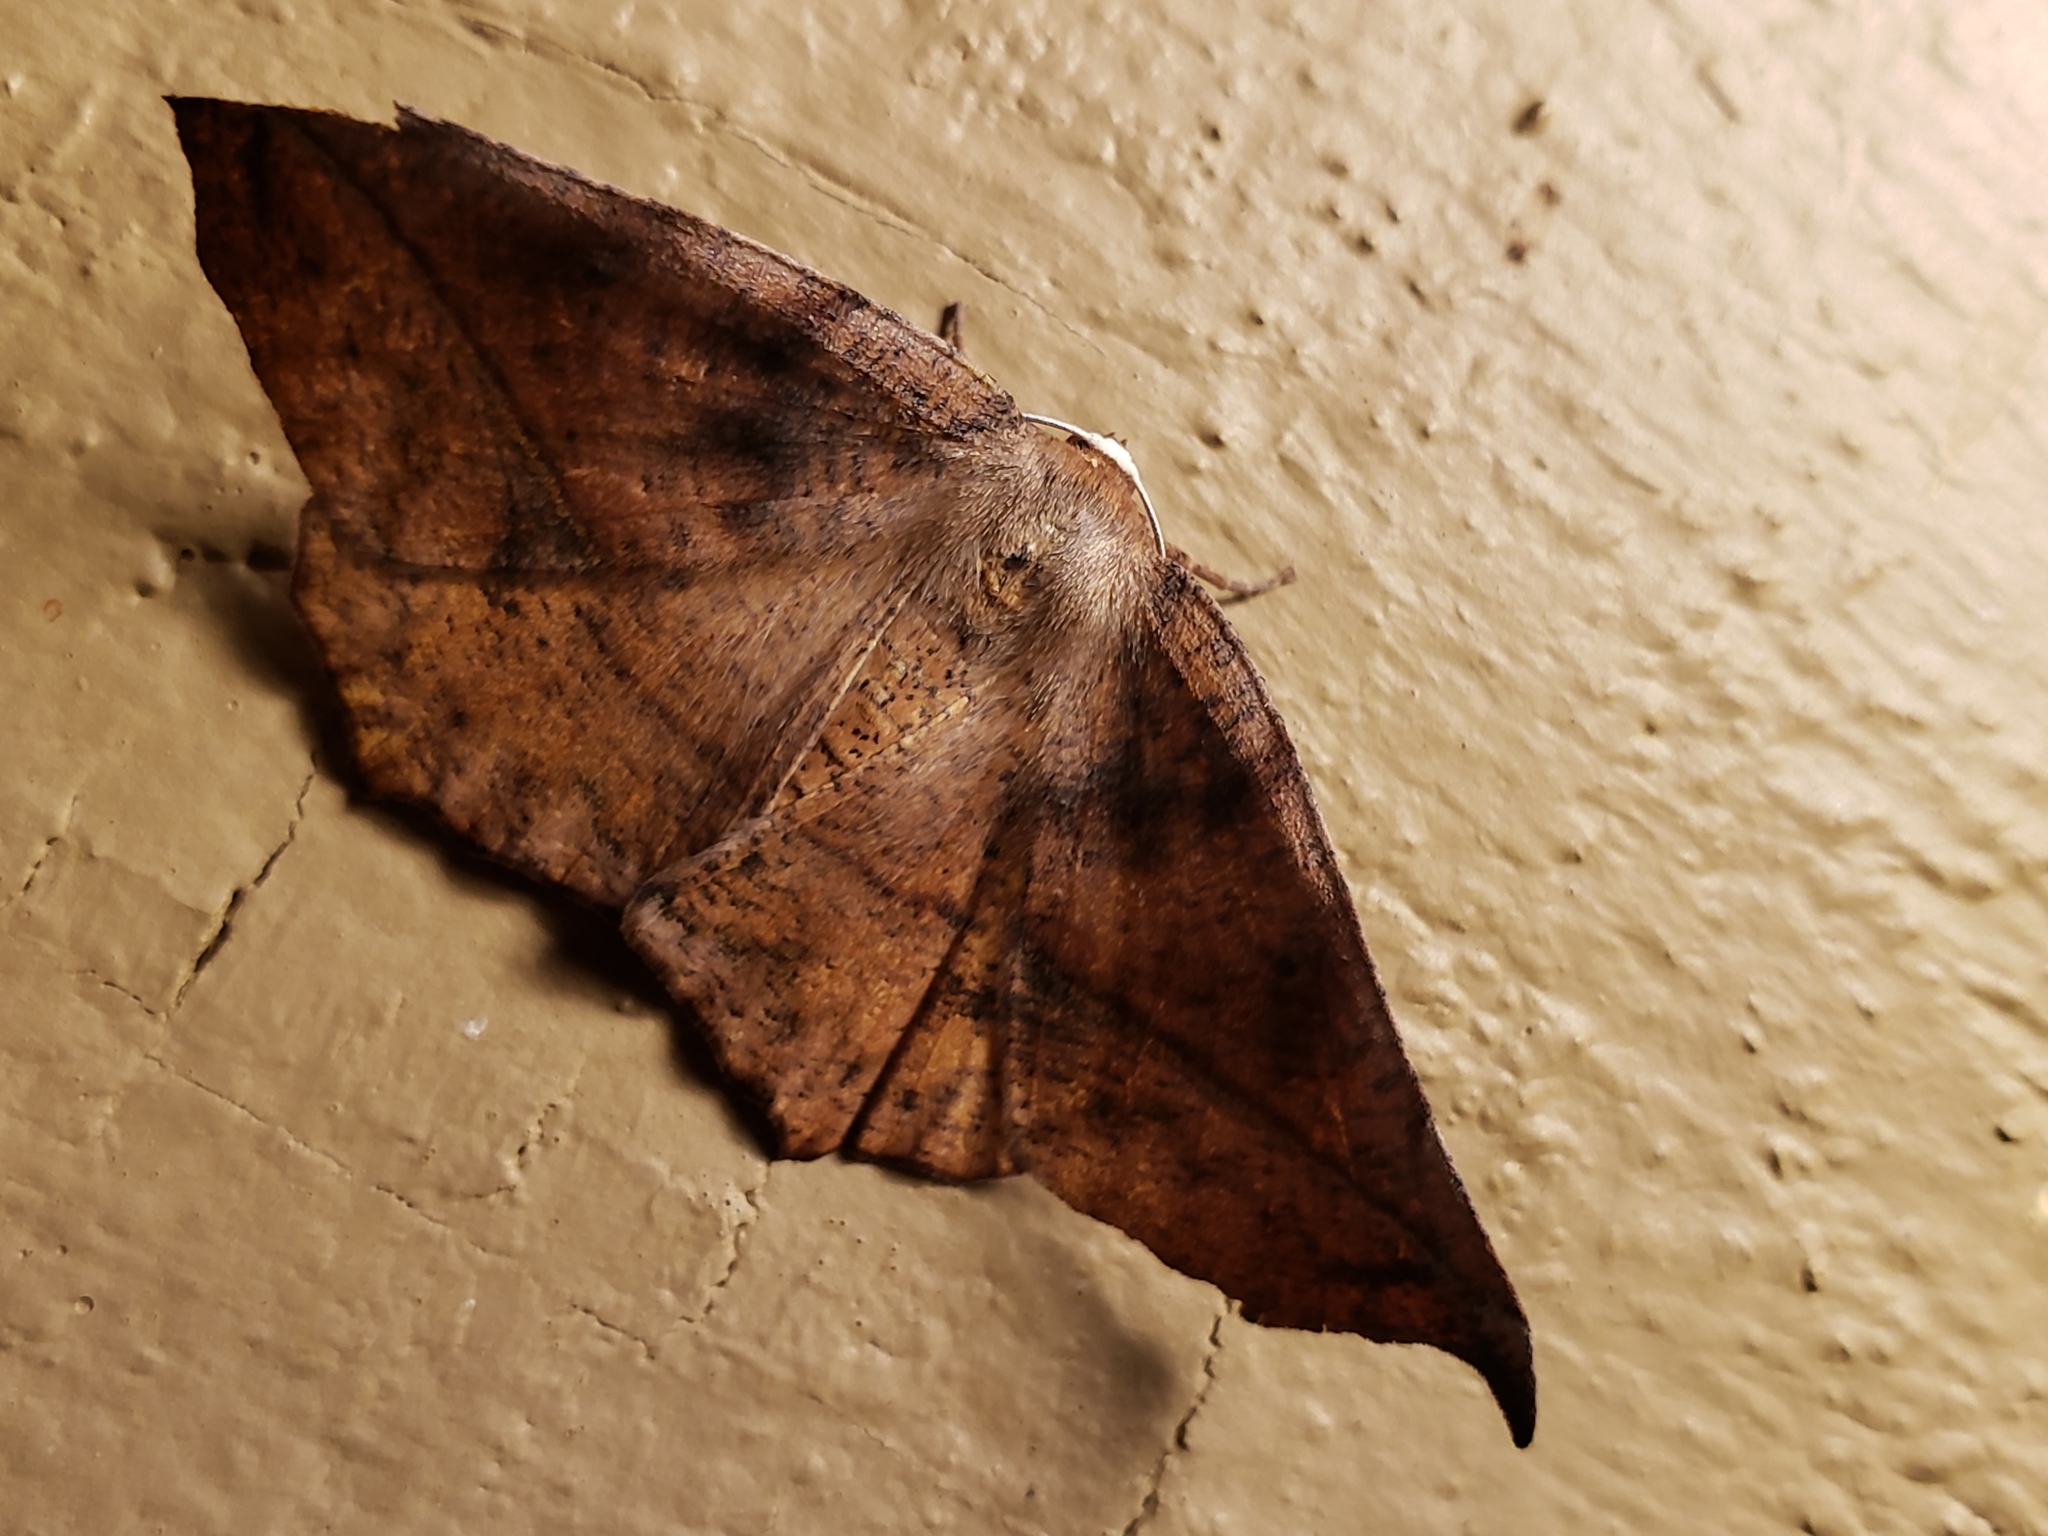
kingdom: Animalia
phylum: Arthropoda
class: Insecta
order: Lepidoptera
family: Geometridae
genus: Eutrapela
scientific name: Eutrapela clemataria
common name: Curved-toothed geometer
